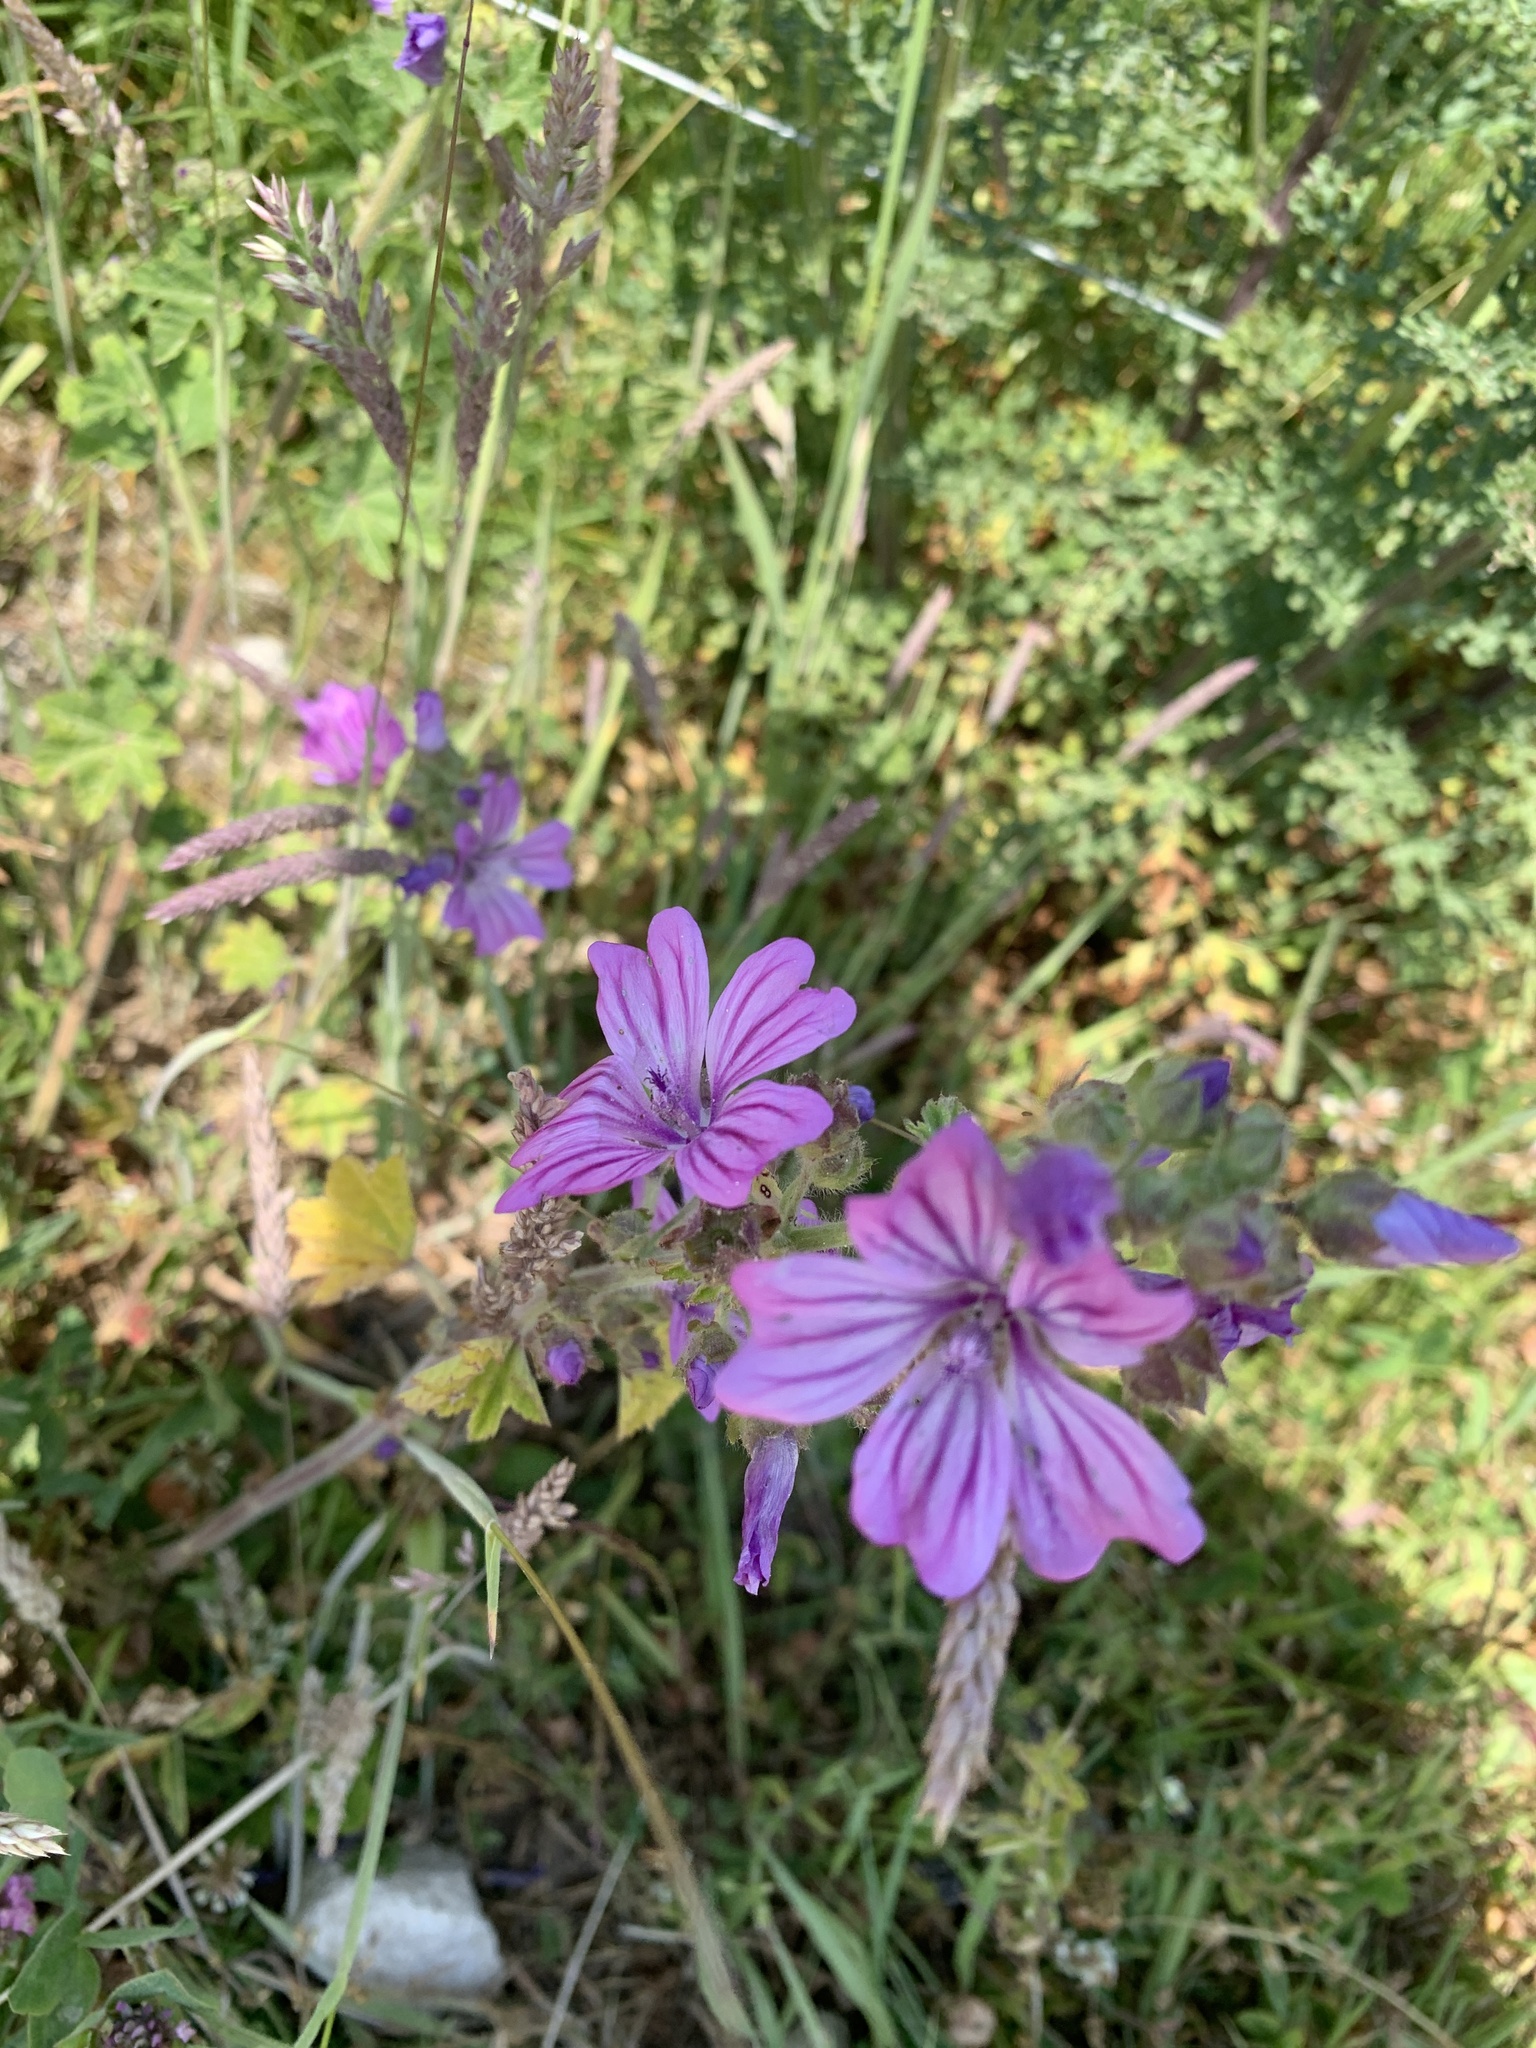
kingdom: Plantae
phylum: Tracheophyta
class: Magnoliopsida
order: Malvales
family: Malvaceae
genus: Malva
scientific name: Malva sylvestris
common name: Common mallow
